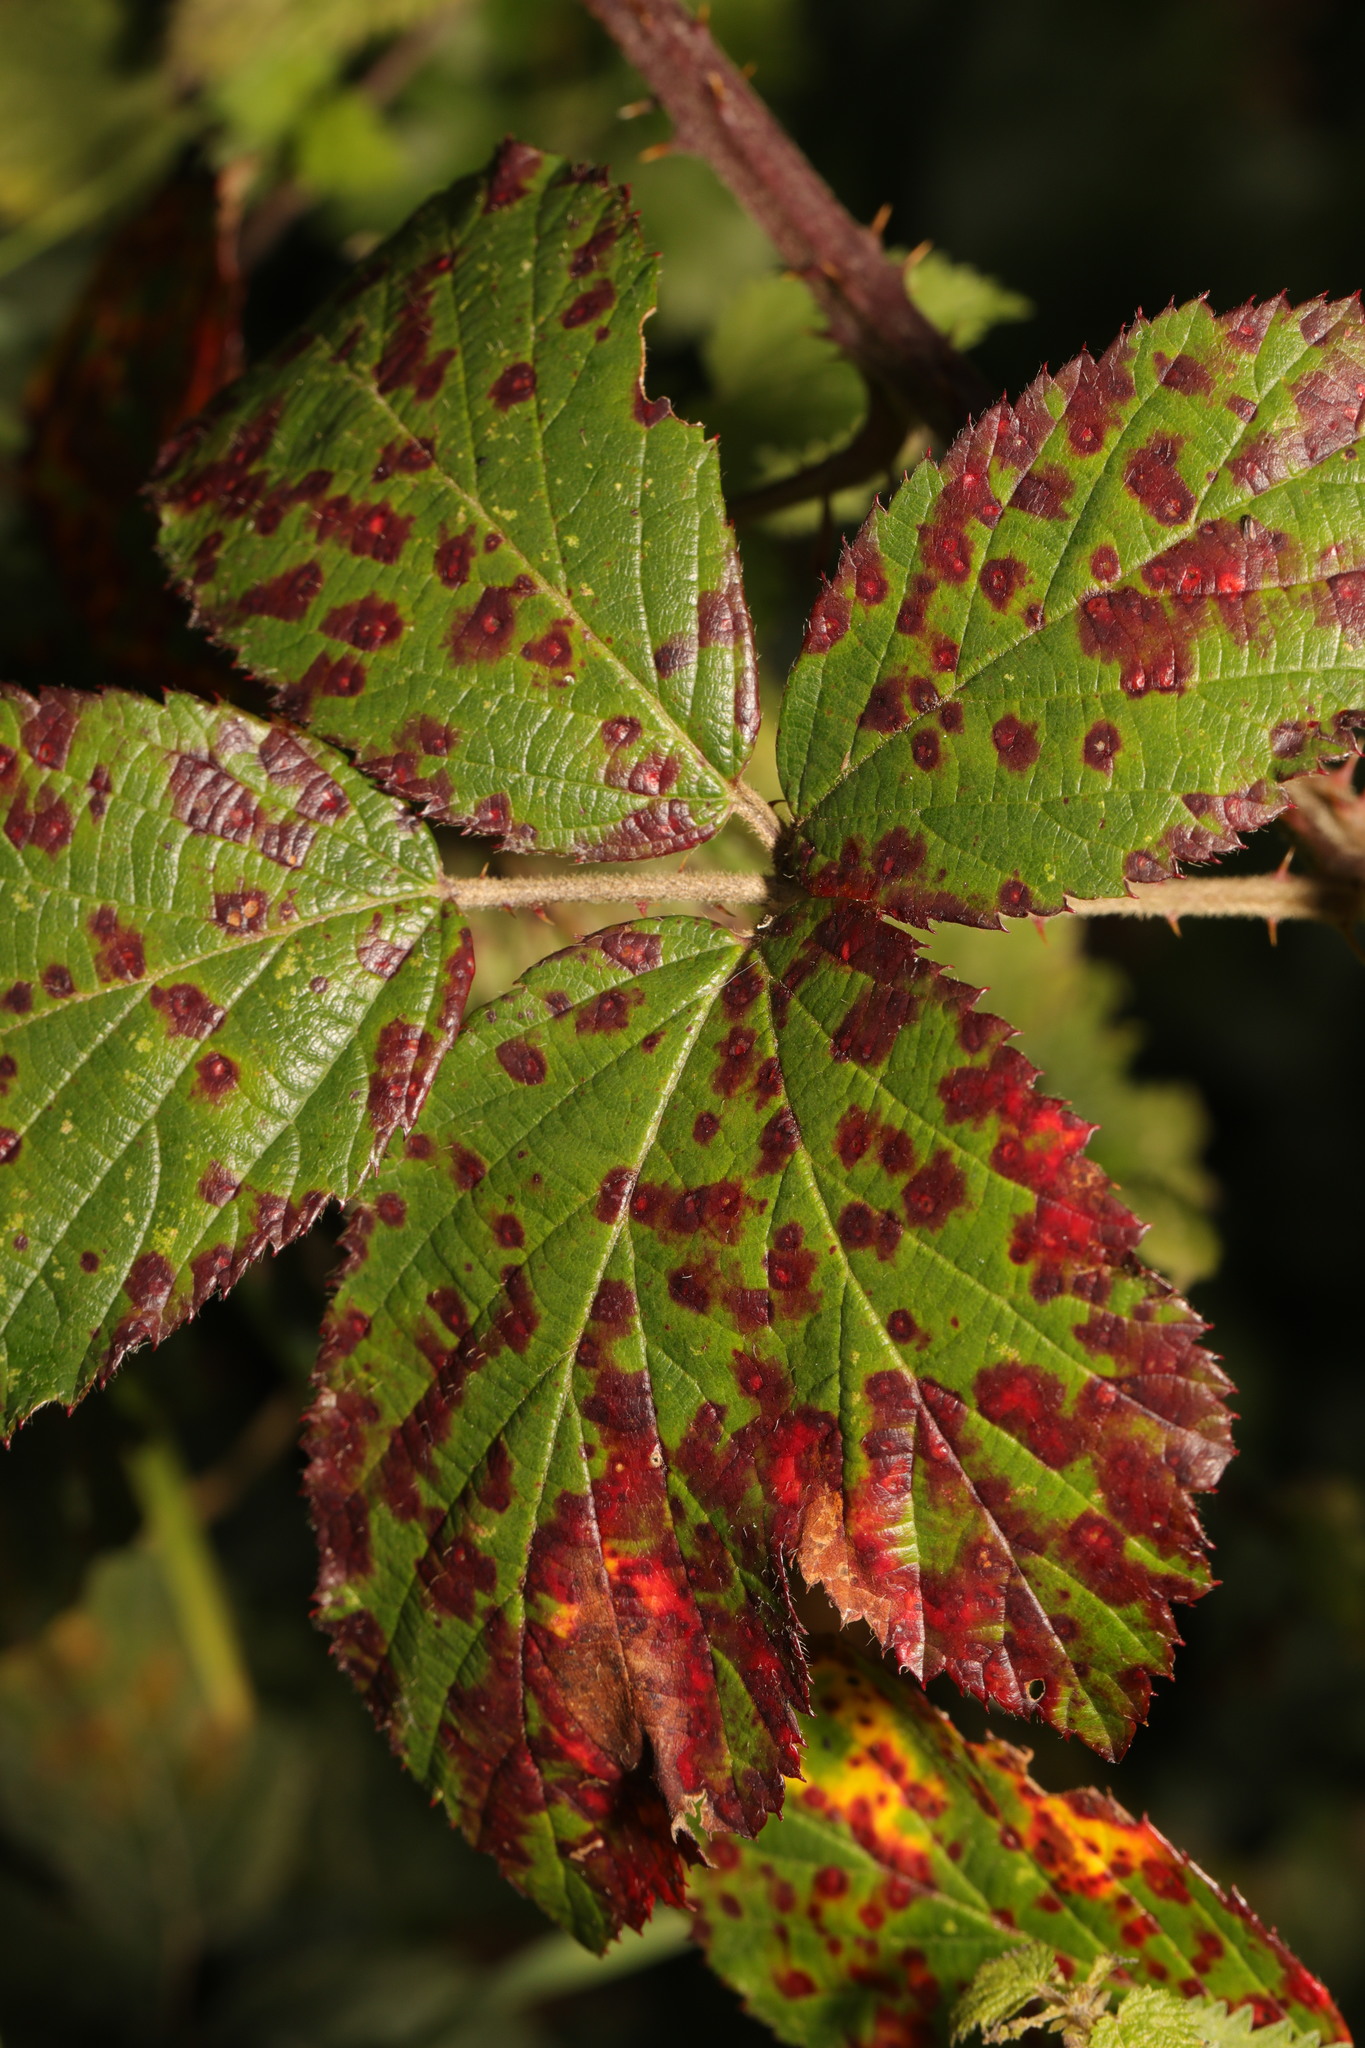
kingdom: Fungi
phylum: Basidiomycota
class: Pucciniomycetes
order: Pucciniales
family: Phragmidiaceae
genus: Phragmidium
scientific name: Phragmidium violaceum
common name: Violet bramble rust
